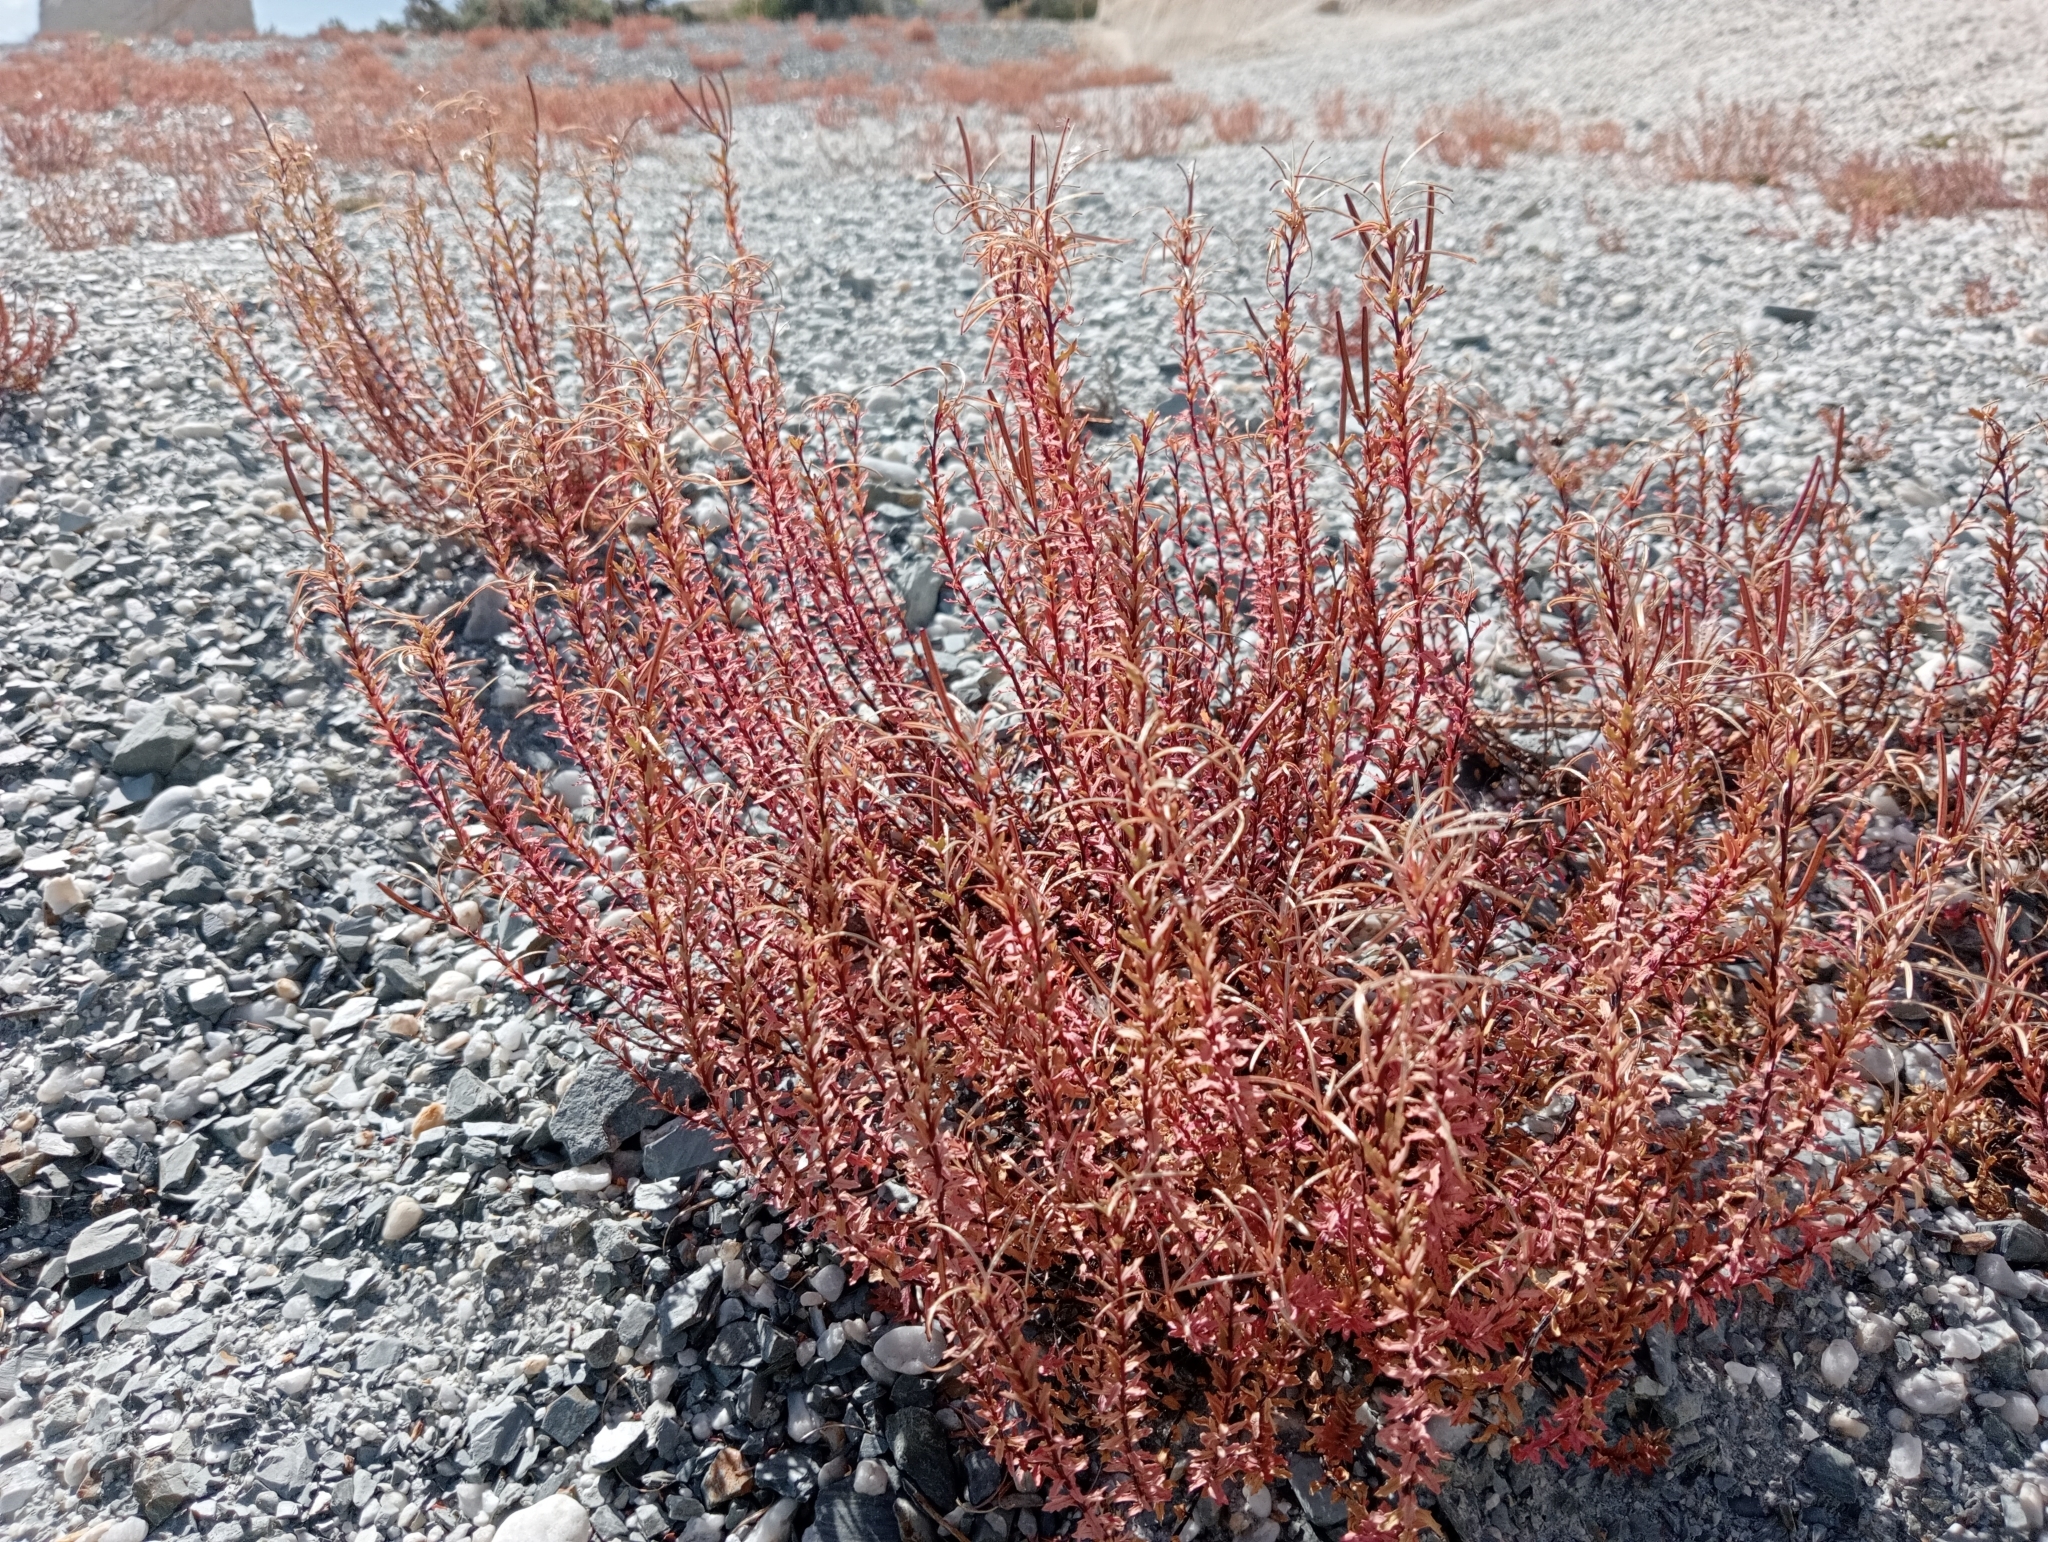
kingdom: Plantae
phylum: Tracheophyta
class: Magnoliopsida
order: Myrtales
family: Onagraceae
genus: Epilobium
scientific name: Epilobium melanocaulon
